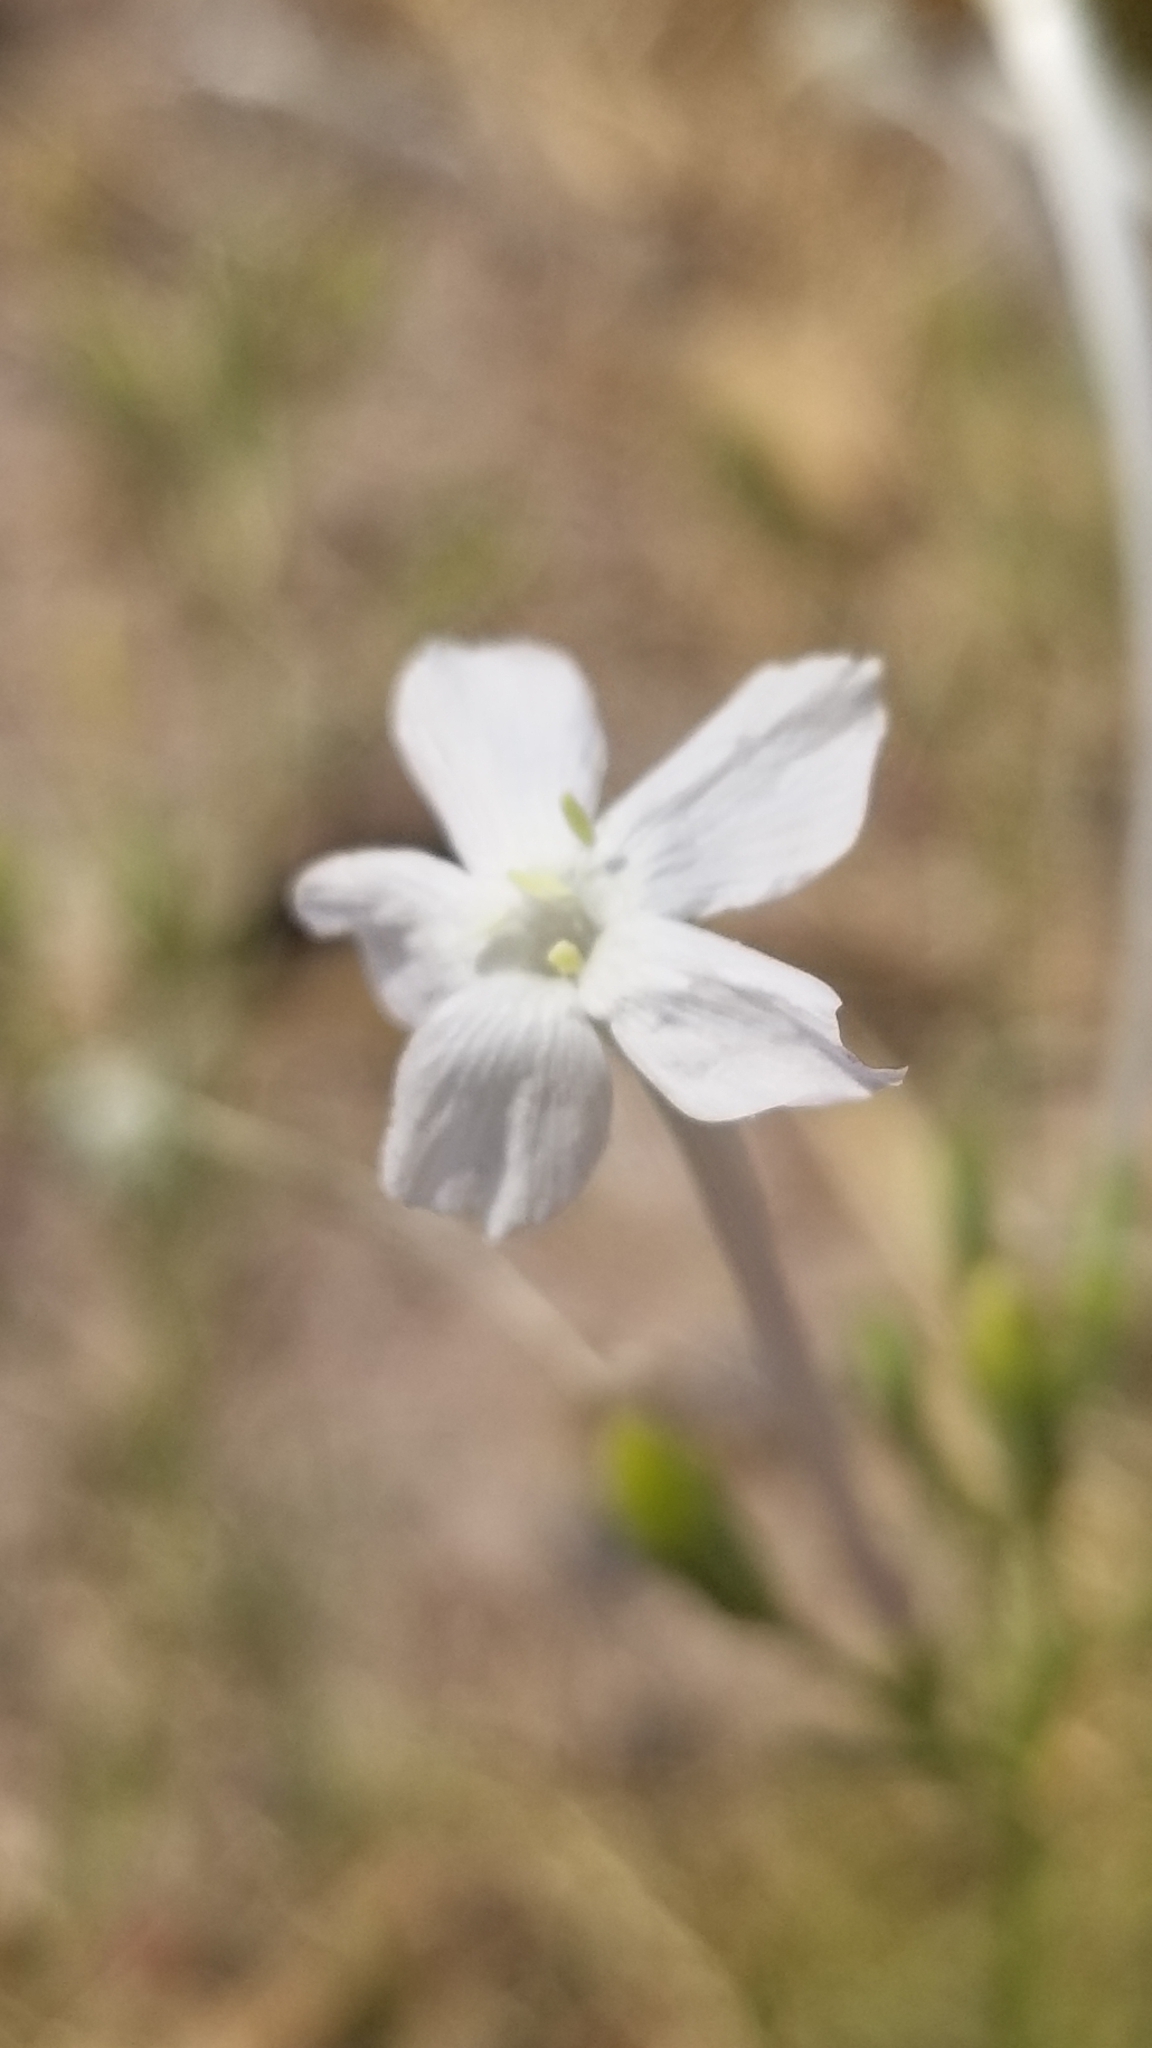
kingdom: Plantae
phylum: Tracheophyta
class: Magnoliopsida
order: Ericales
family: Polemoniaceae
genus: Ipomopsis
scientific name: Ipomopsis longiflora
